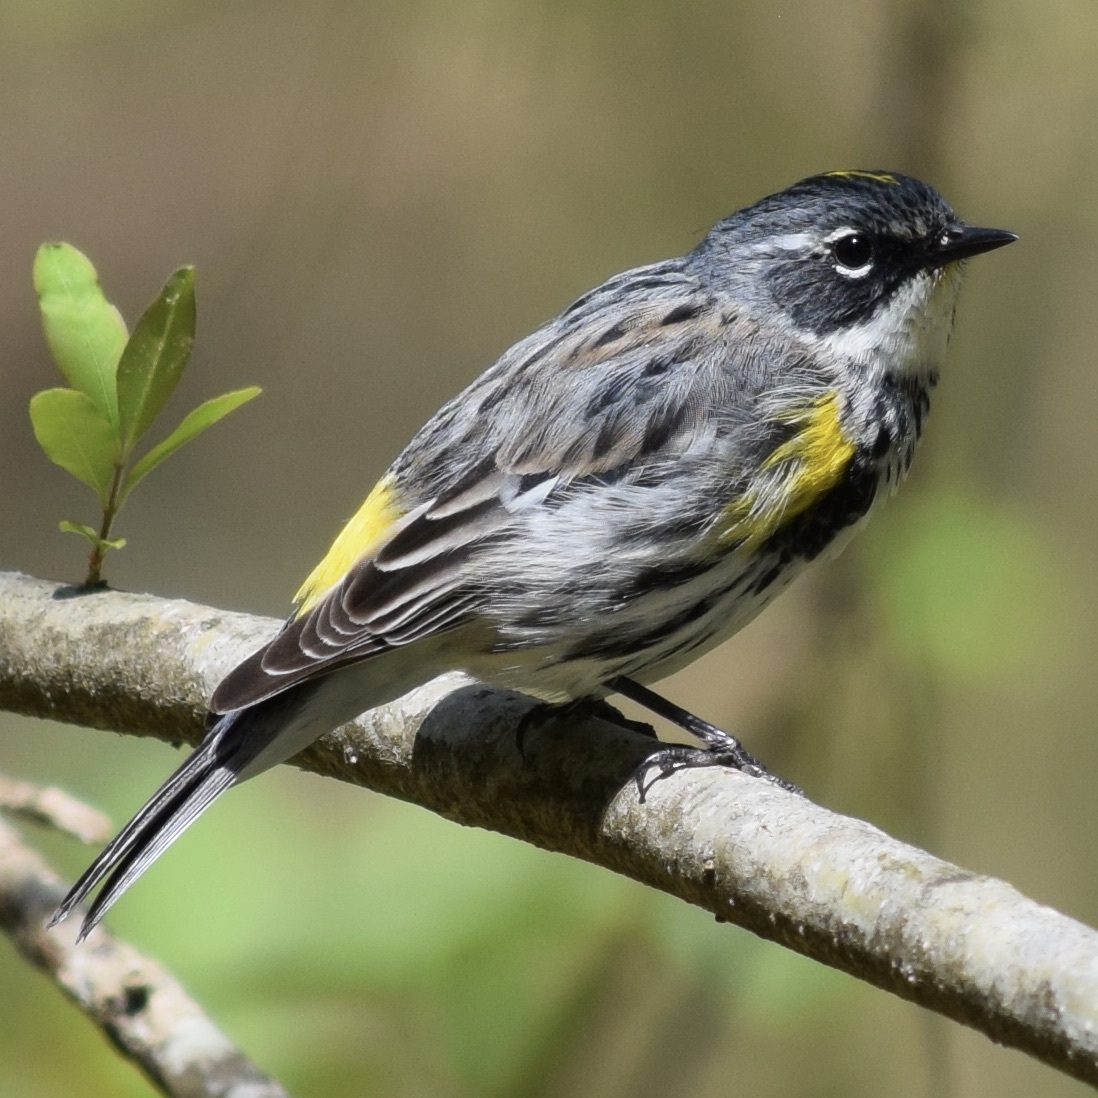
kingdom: Animalia
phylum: Chordata
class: Aves
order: Passeriformes
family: Parulidae
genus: Setophaga
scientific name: Setophaga coronata
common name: Myrtle warbler
